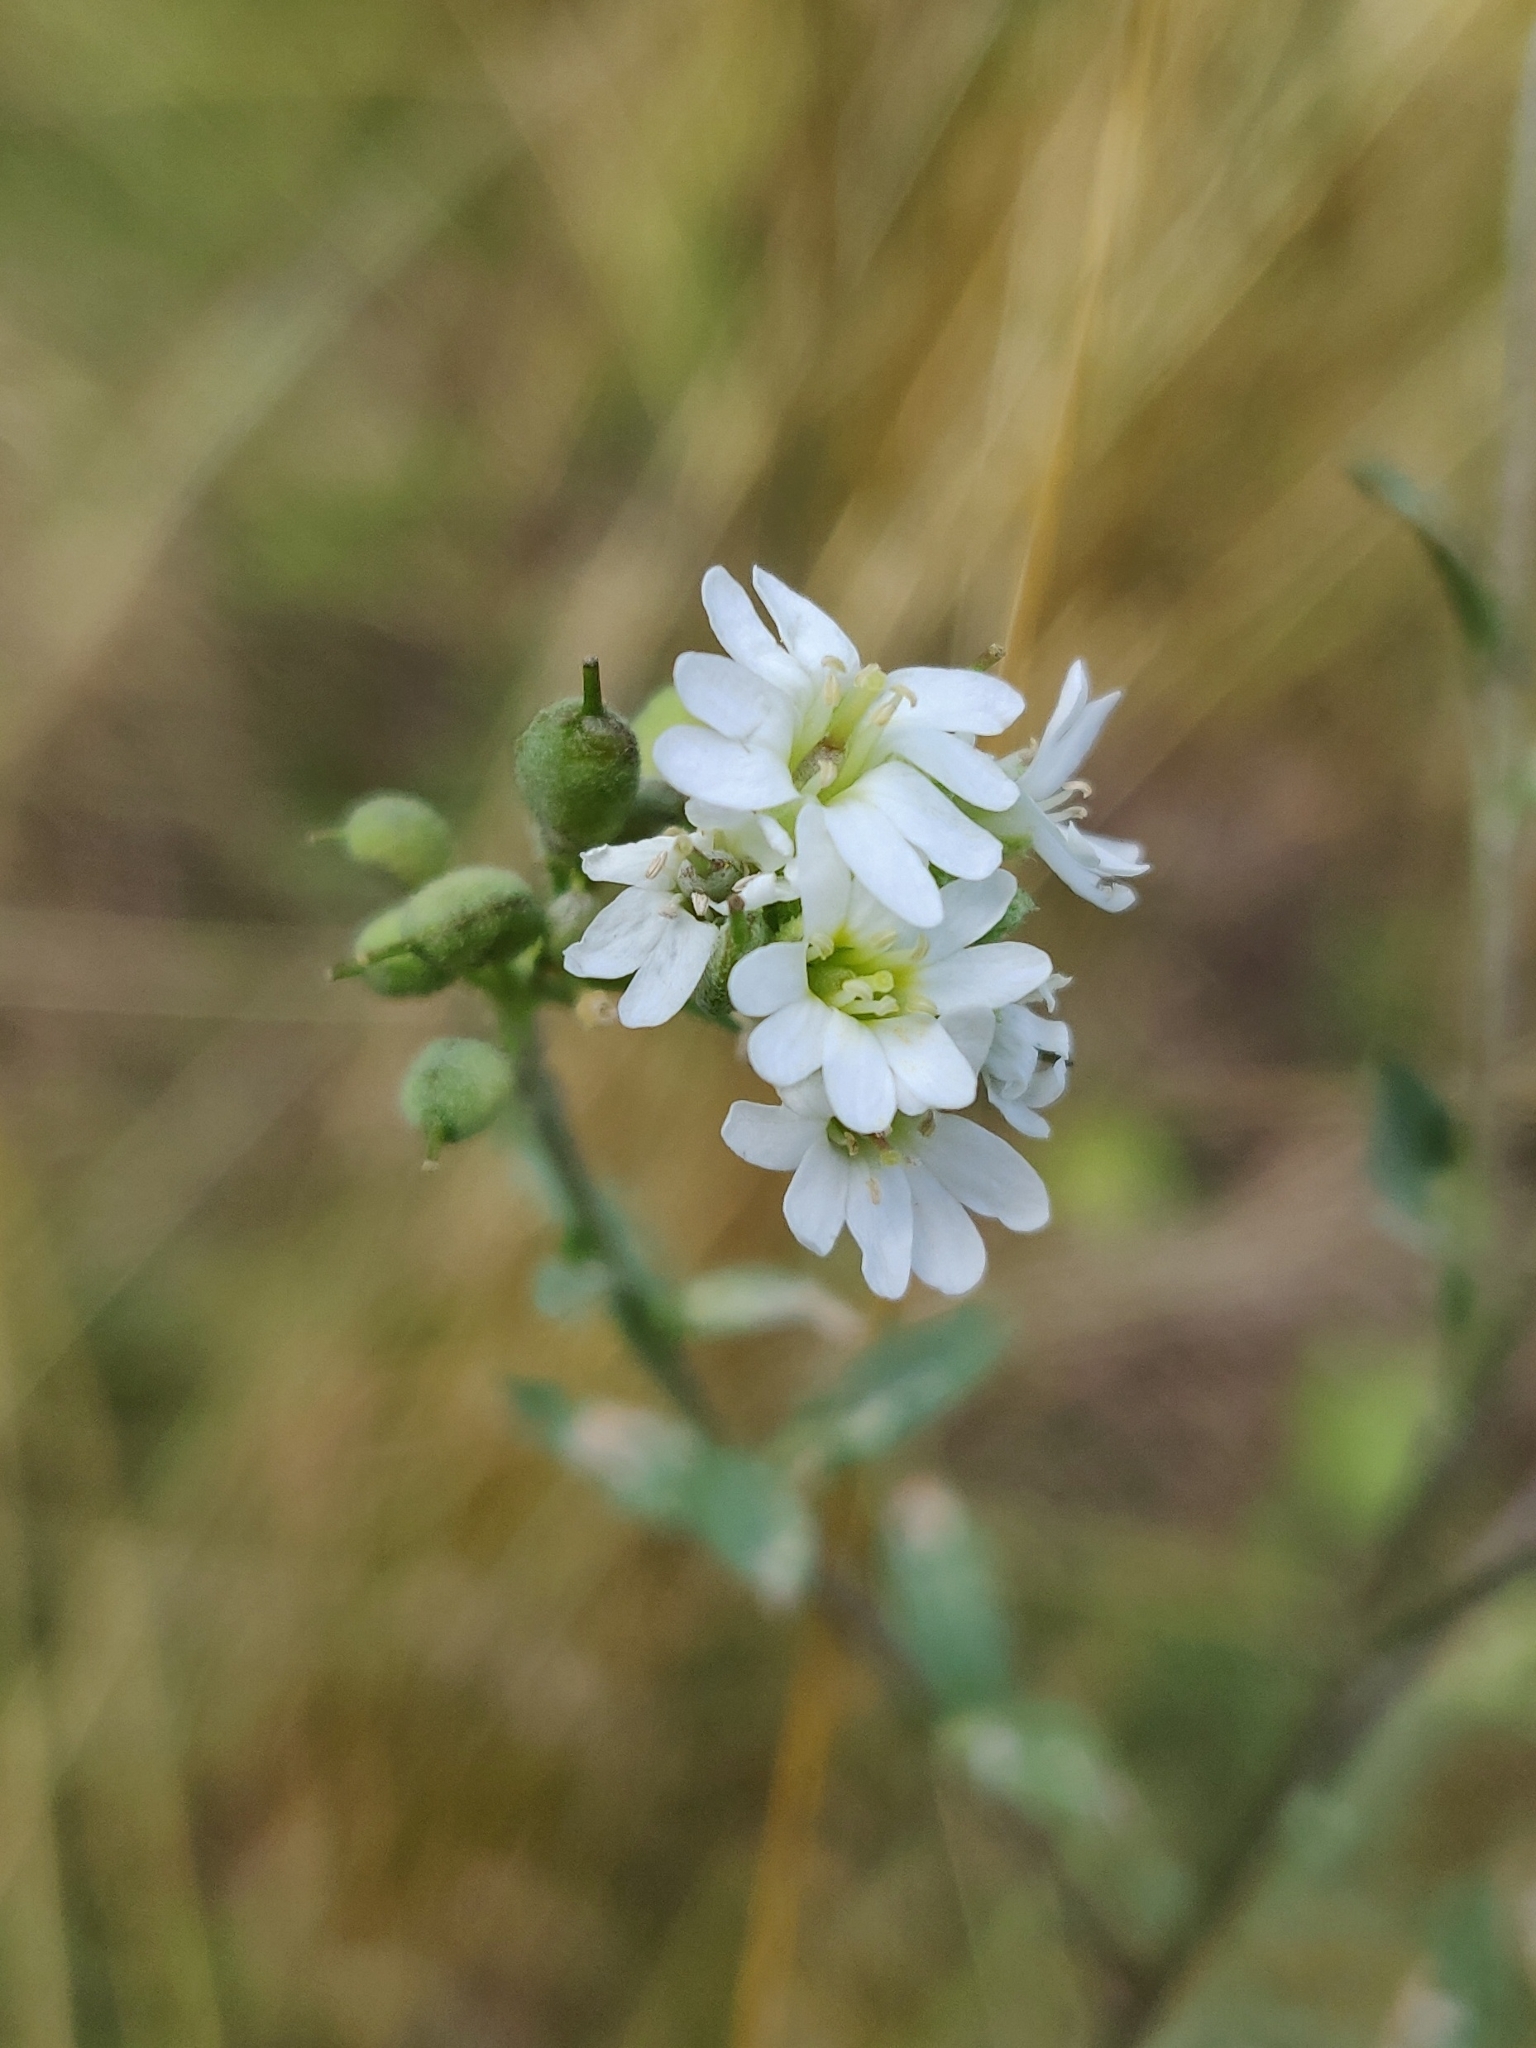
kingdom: Plantae
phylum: Tracheophyta
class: Magnoliopsida
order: Brassicales
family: Brassicaceae
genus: Berteroa
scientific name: Berteroa incana
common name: Hoary alison
